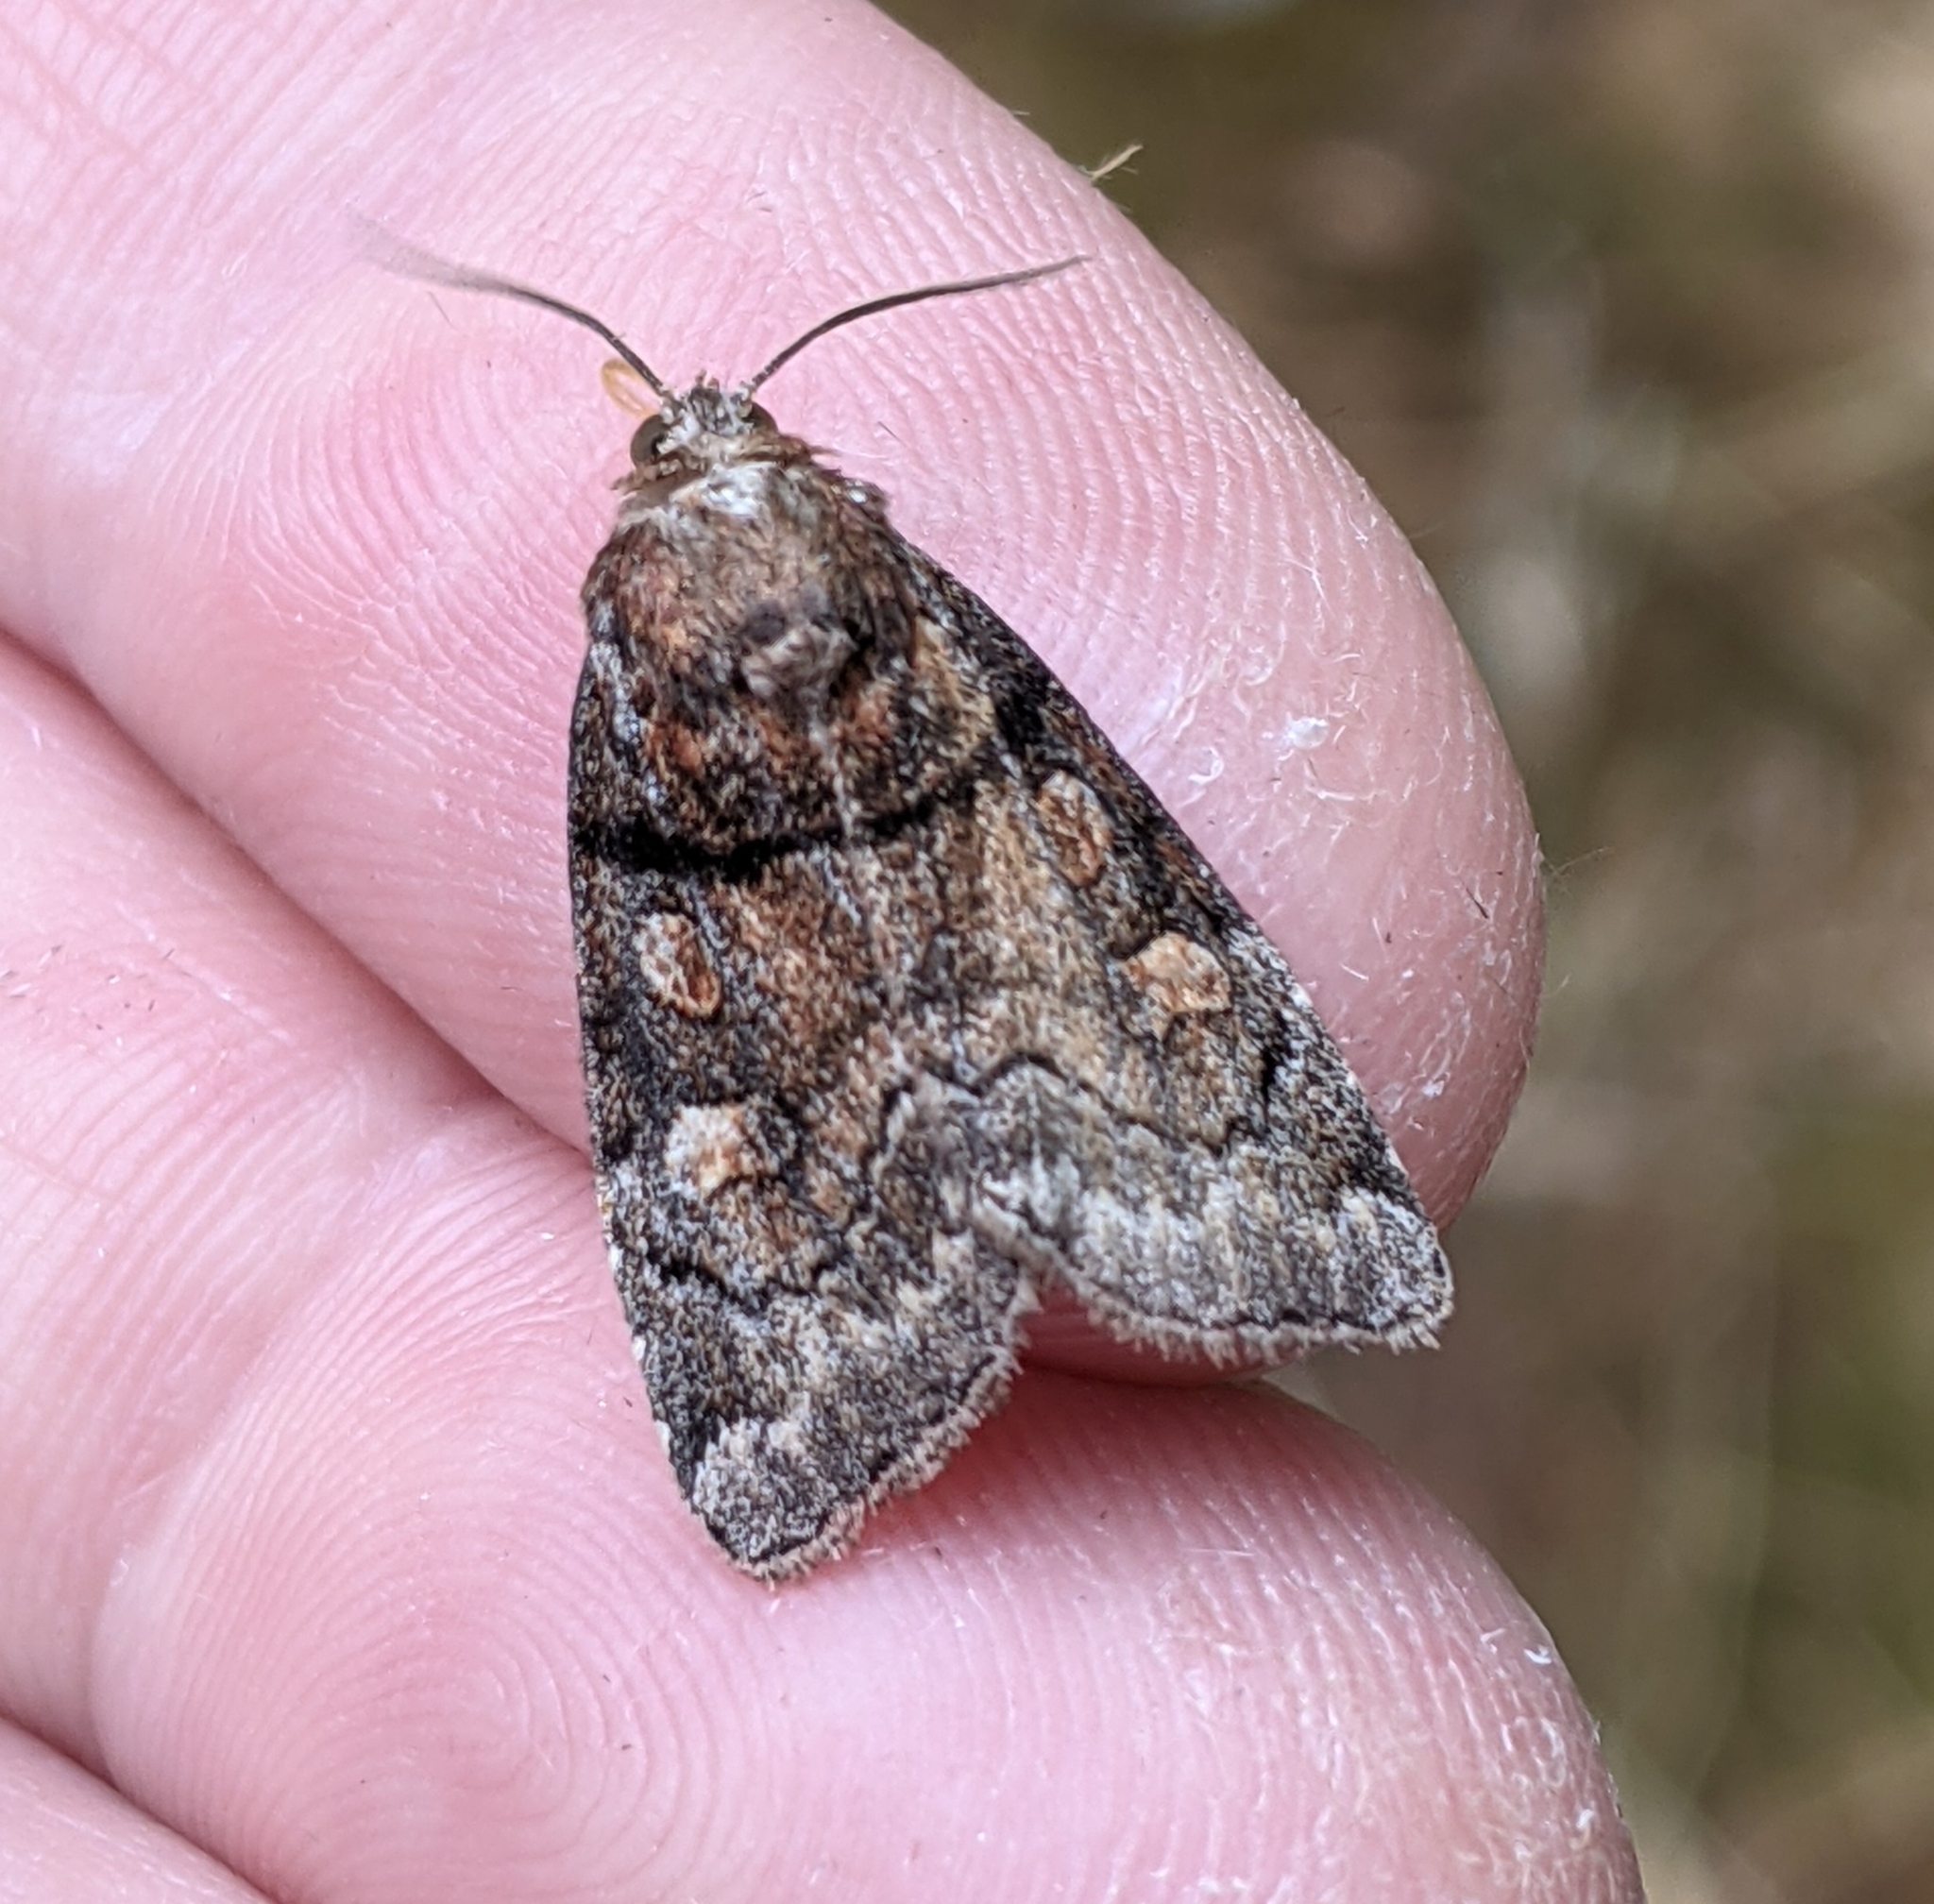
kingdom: Animalia
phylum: Arthropoda
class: Insecta
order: Lepidoptera
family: Noctuidae
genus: Cosmia
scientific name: Cosmia praeacuta
